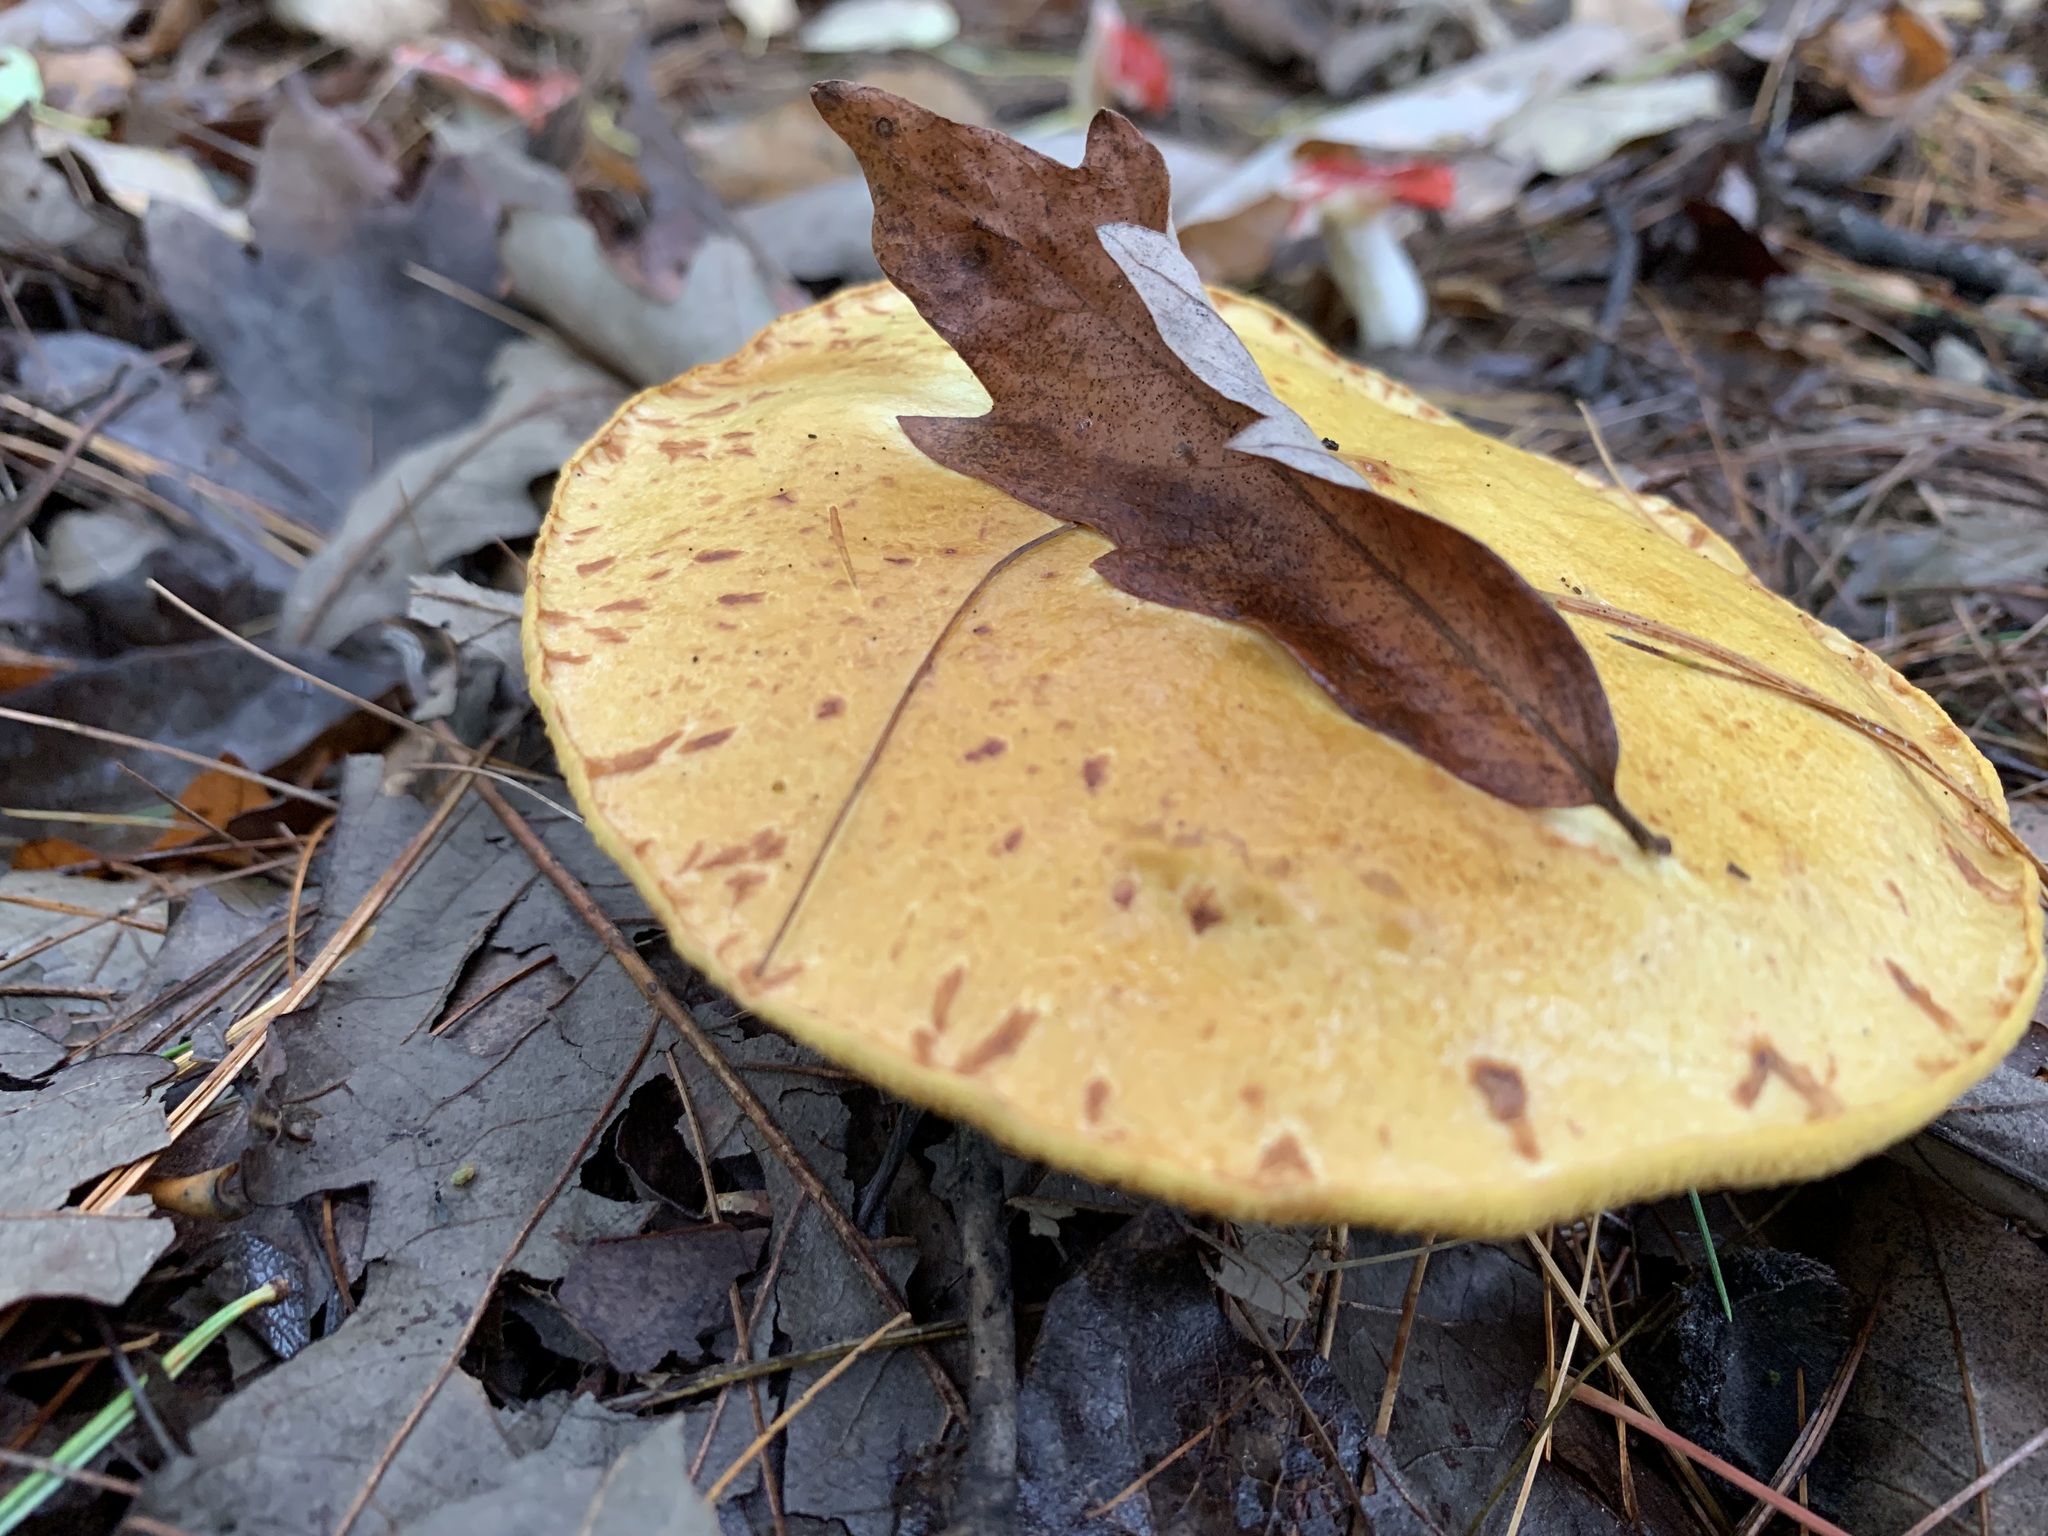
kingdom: Fungi
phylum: Basidiomycota
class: Agaricomycetes
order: Boletales
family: Suillaceae
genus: Suillus
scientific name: Suillus americanus
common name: Chicken fat mushroom
